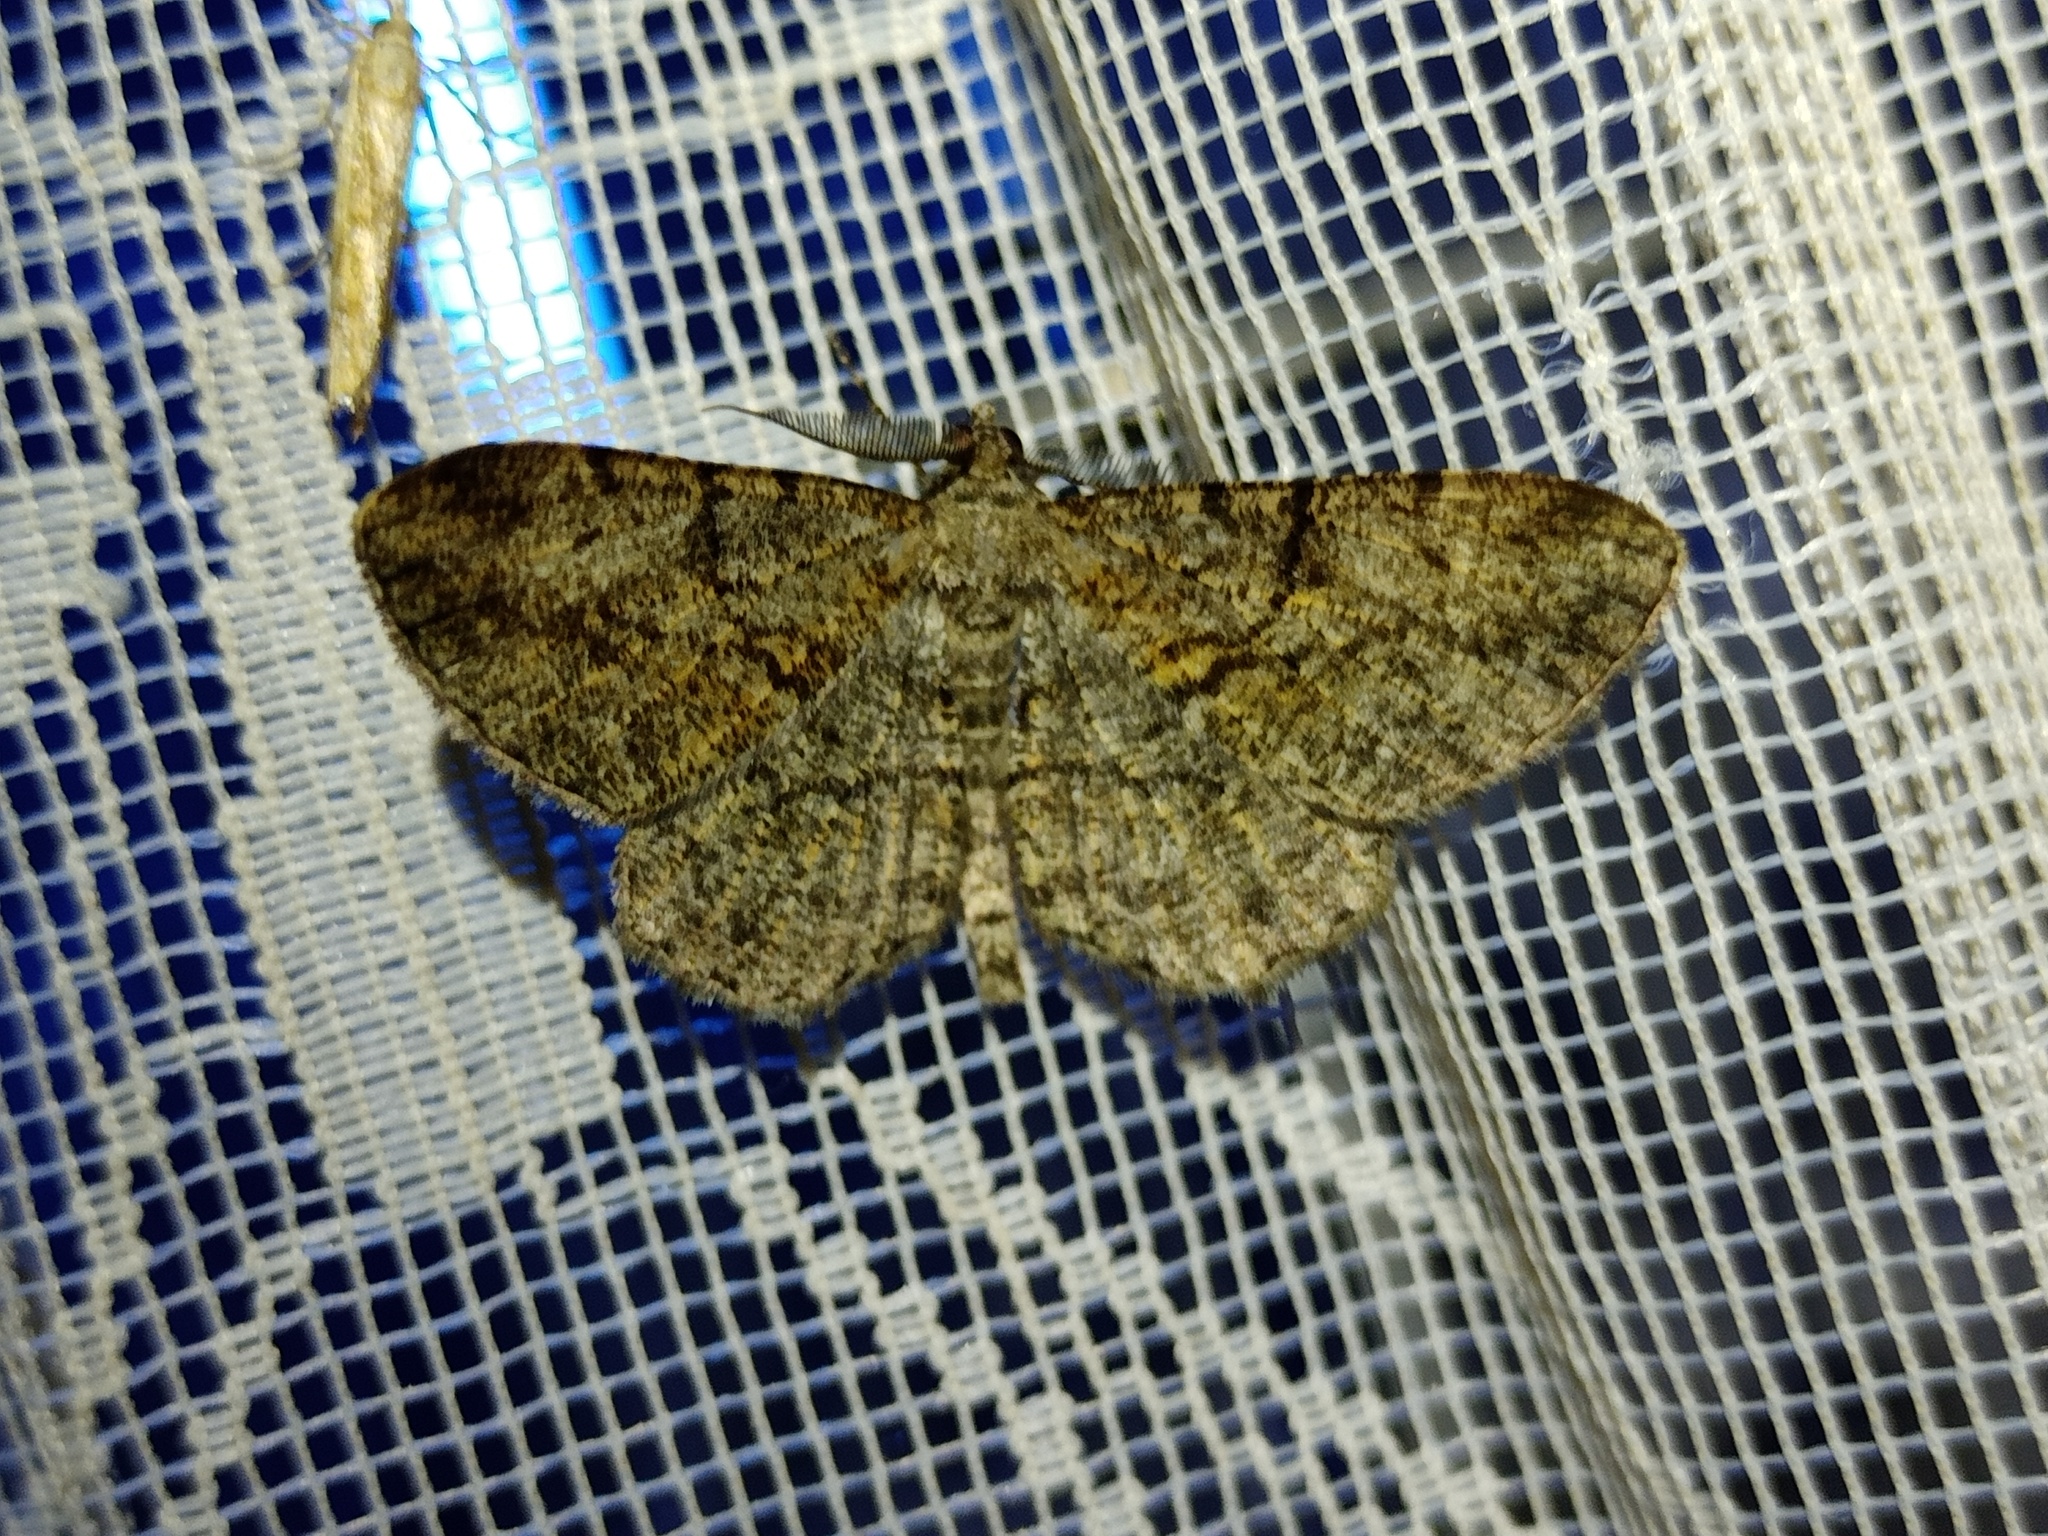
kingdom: Animalia
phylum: Arthropoda
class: Insecta
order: Lepidoptera
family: Geometridae
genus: Peribatodes
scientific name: Peribatodes rhomboidaria
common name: Willow beauty
